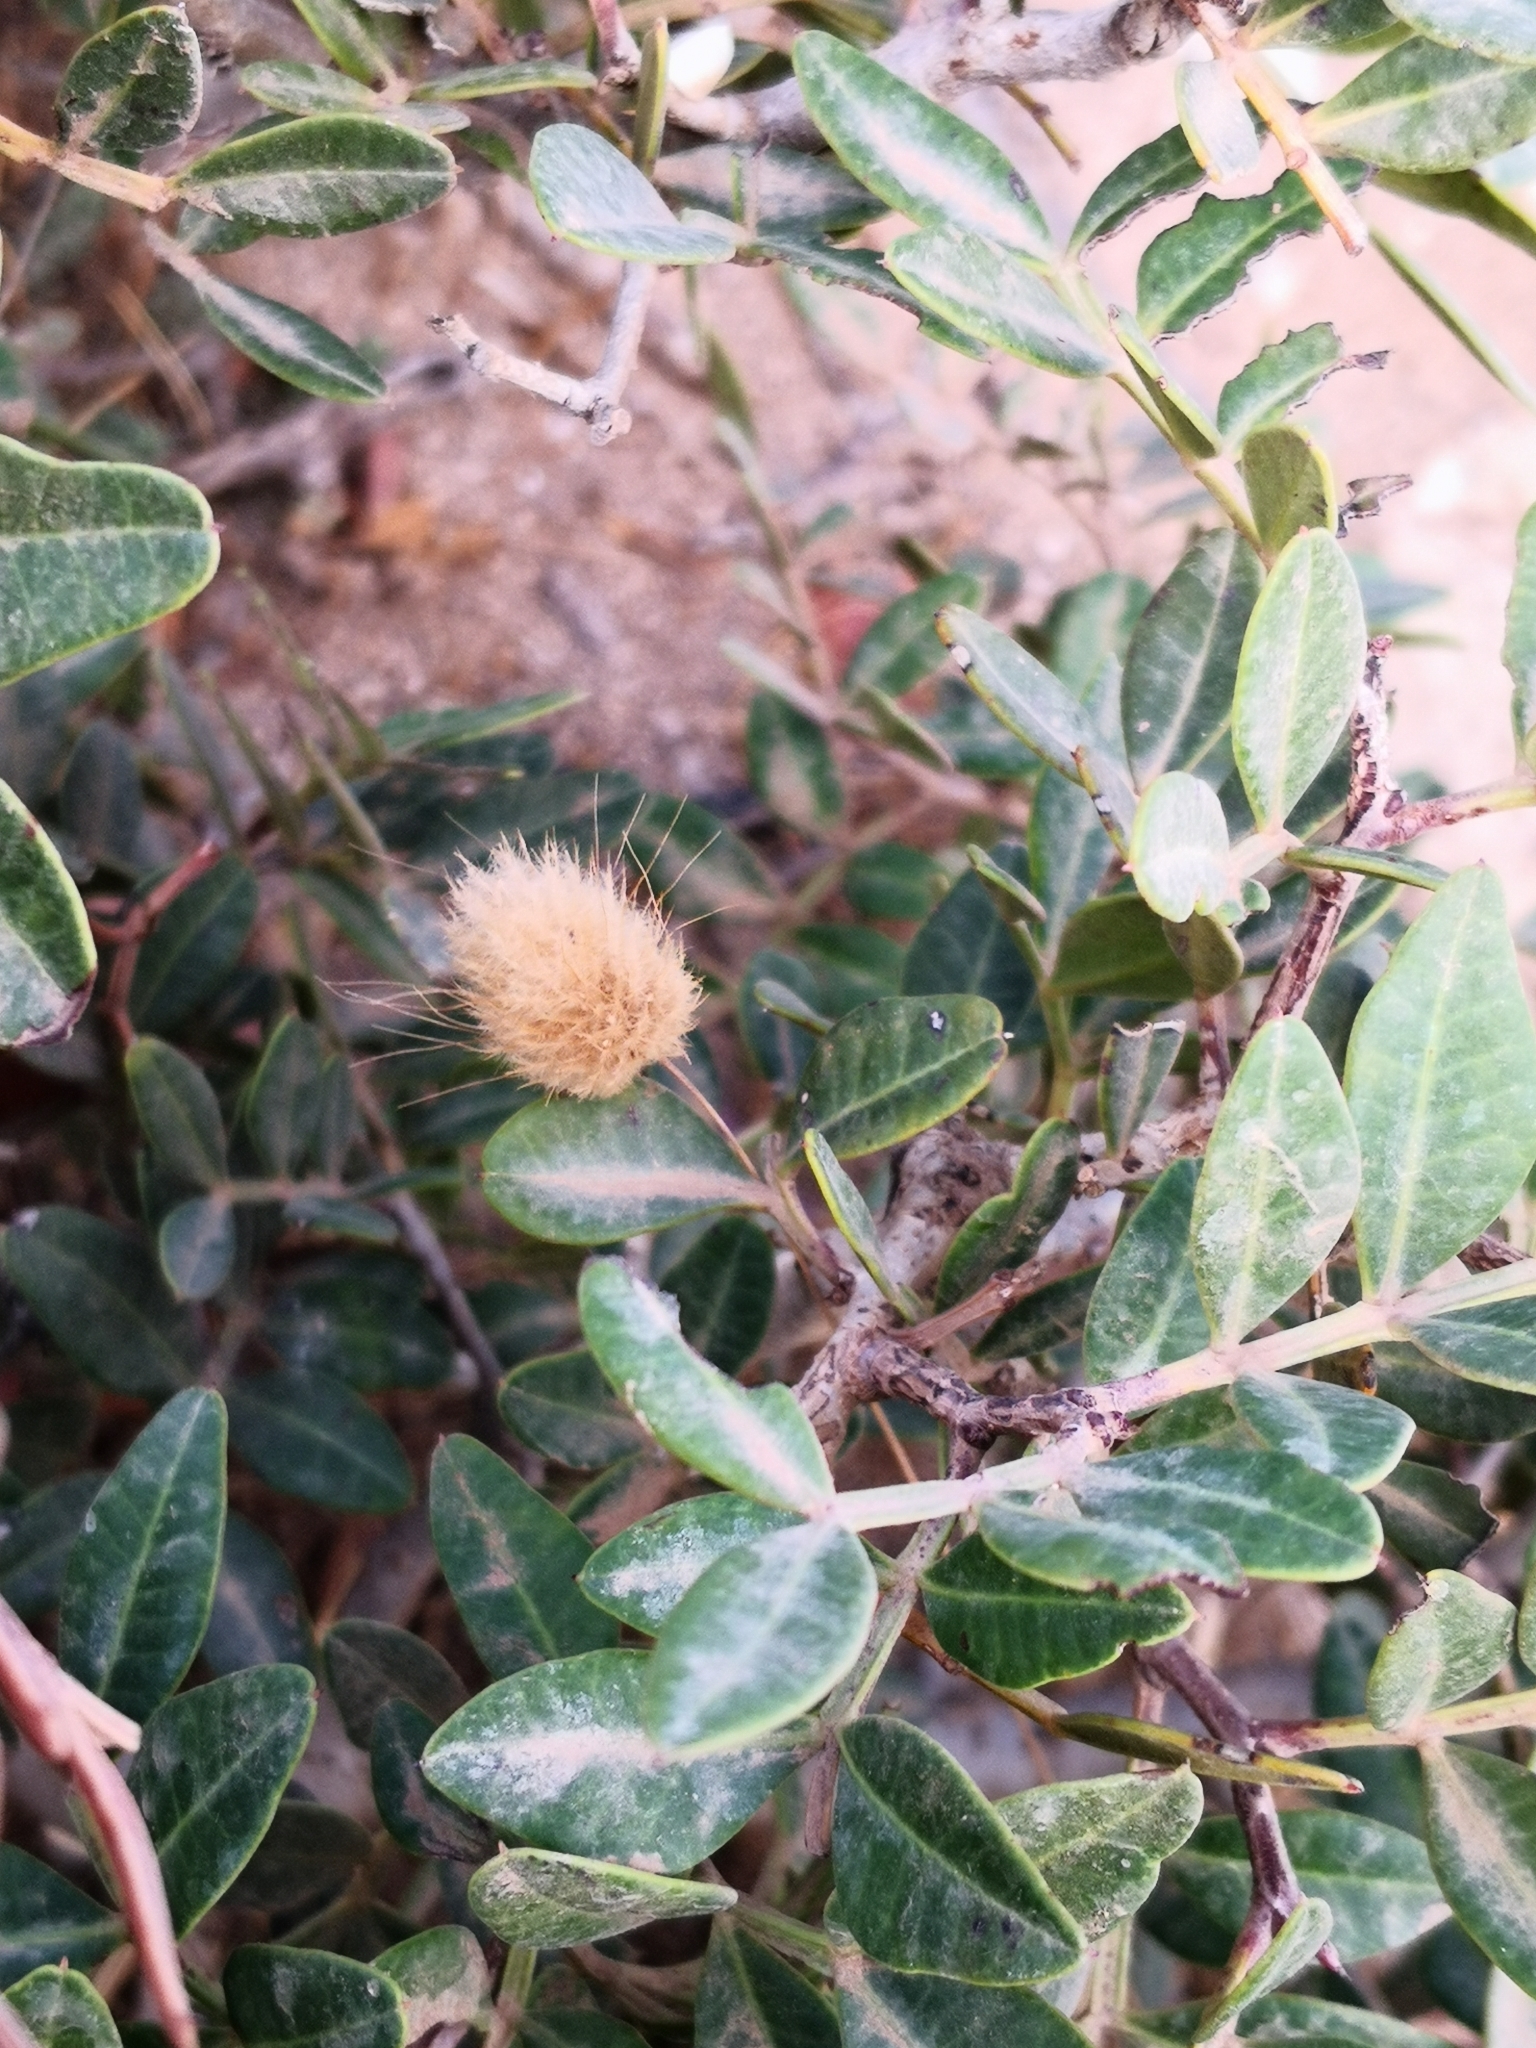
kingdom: Plantae
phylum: Tracheophyta
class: Liliopsida
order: Poales
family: Poaceae
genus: Lagurus
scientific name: Lagurus ovatus
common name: Hare's-tail
